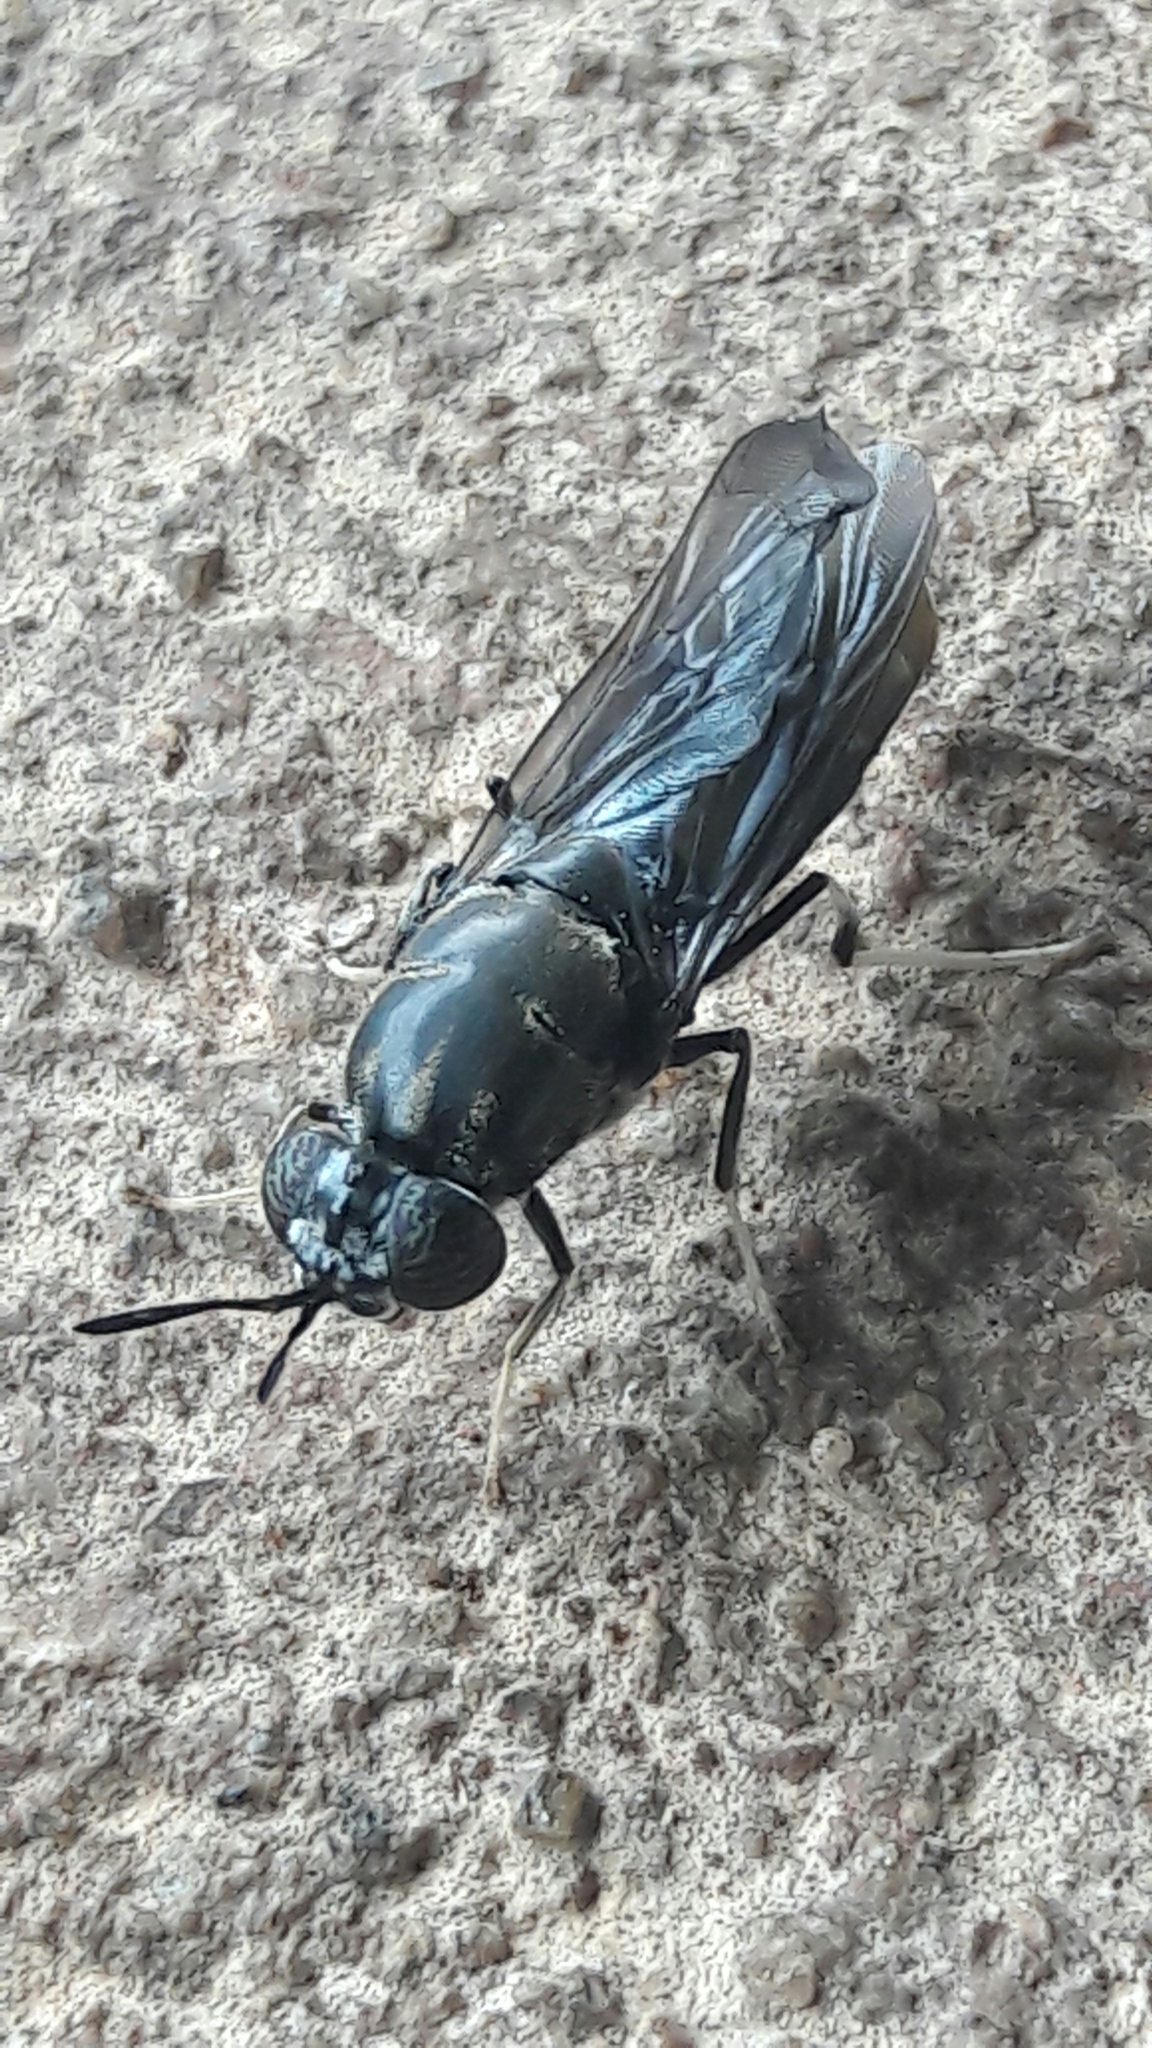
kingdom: Animalia
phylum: Arthropoda
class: Insecta
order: Diptera
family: Stratiomyidae
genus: Hermetia
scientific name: Hermetia illucens
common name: Black soldier fly
